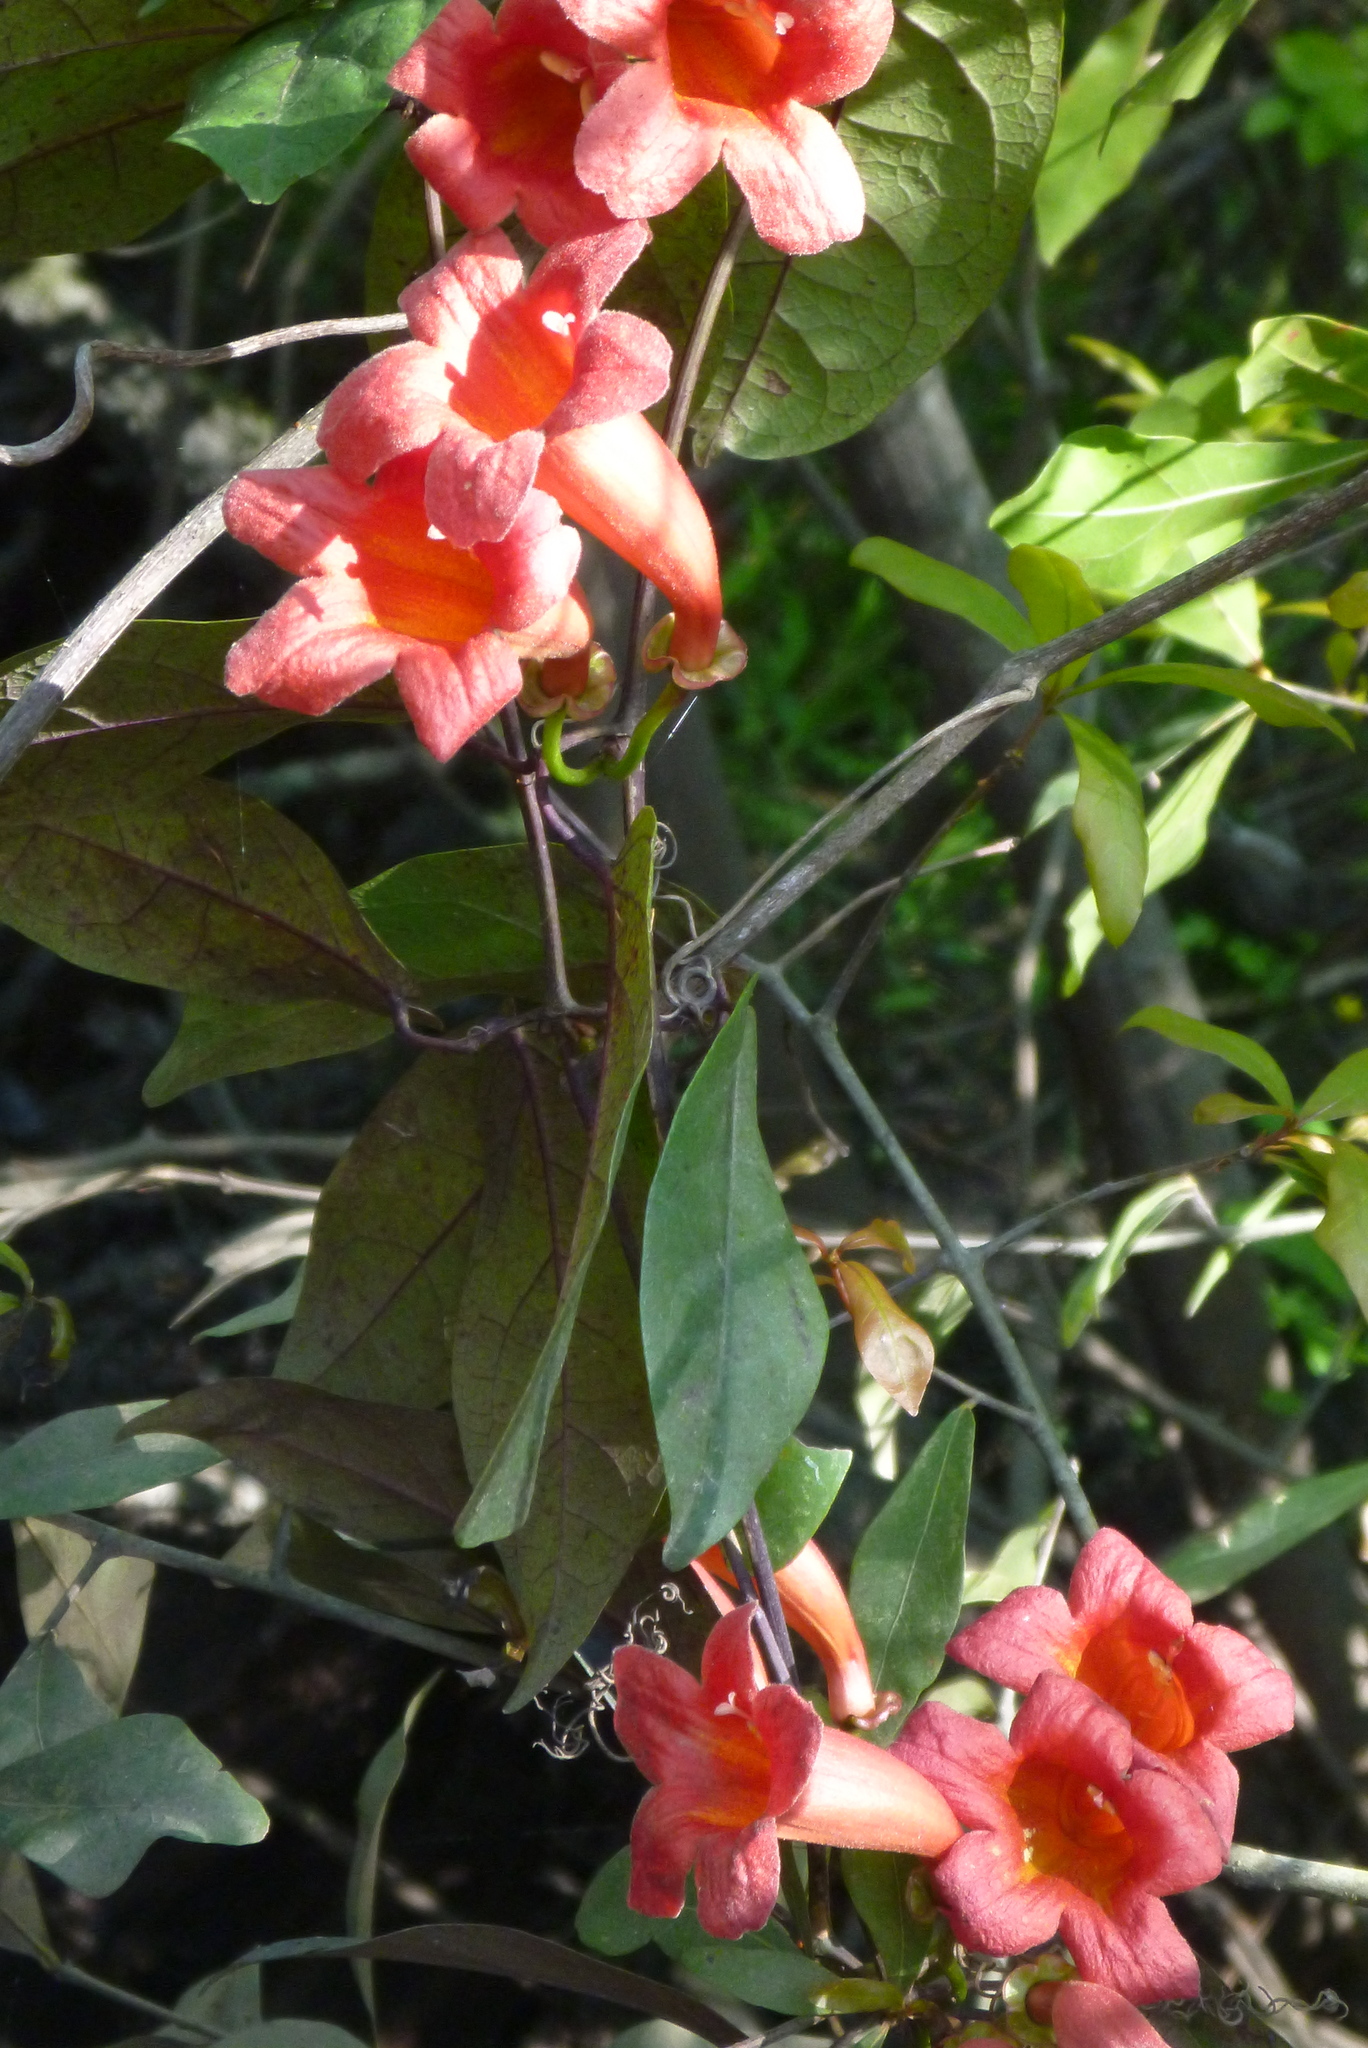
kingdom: Plantae
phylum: Tracheophyta
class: Magnoliopsida
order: Lamiales
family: Bignoniaceae
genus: Bignonia
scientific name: Bignonia capreolata
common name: Crossvine
